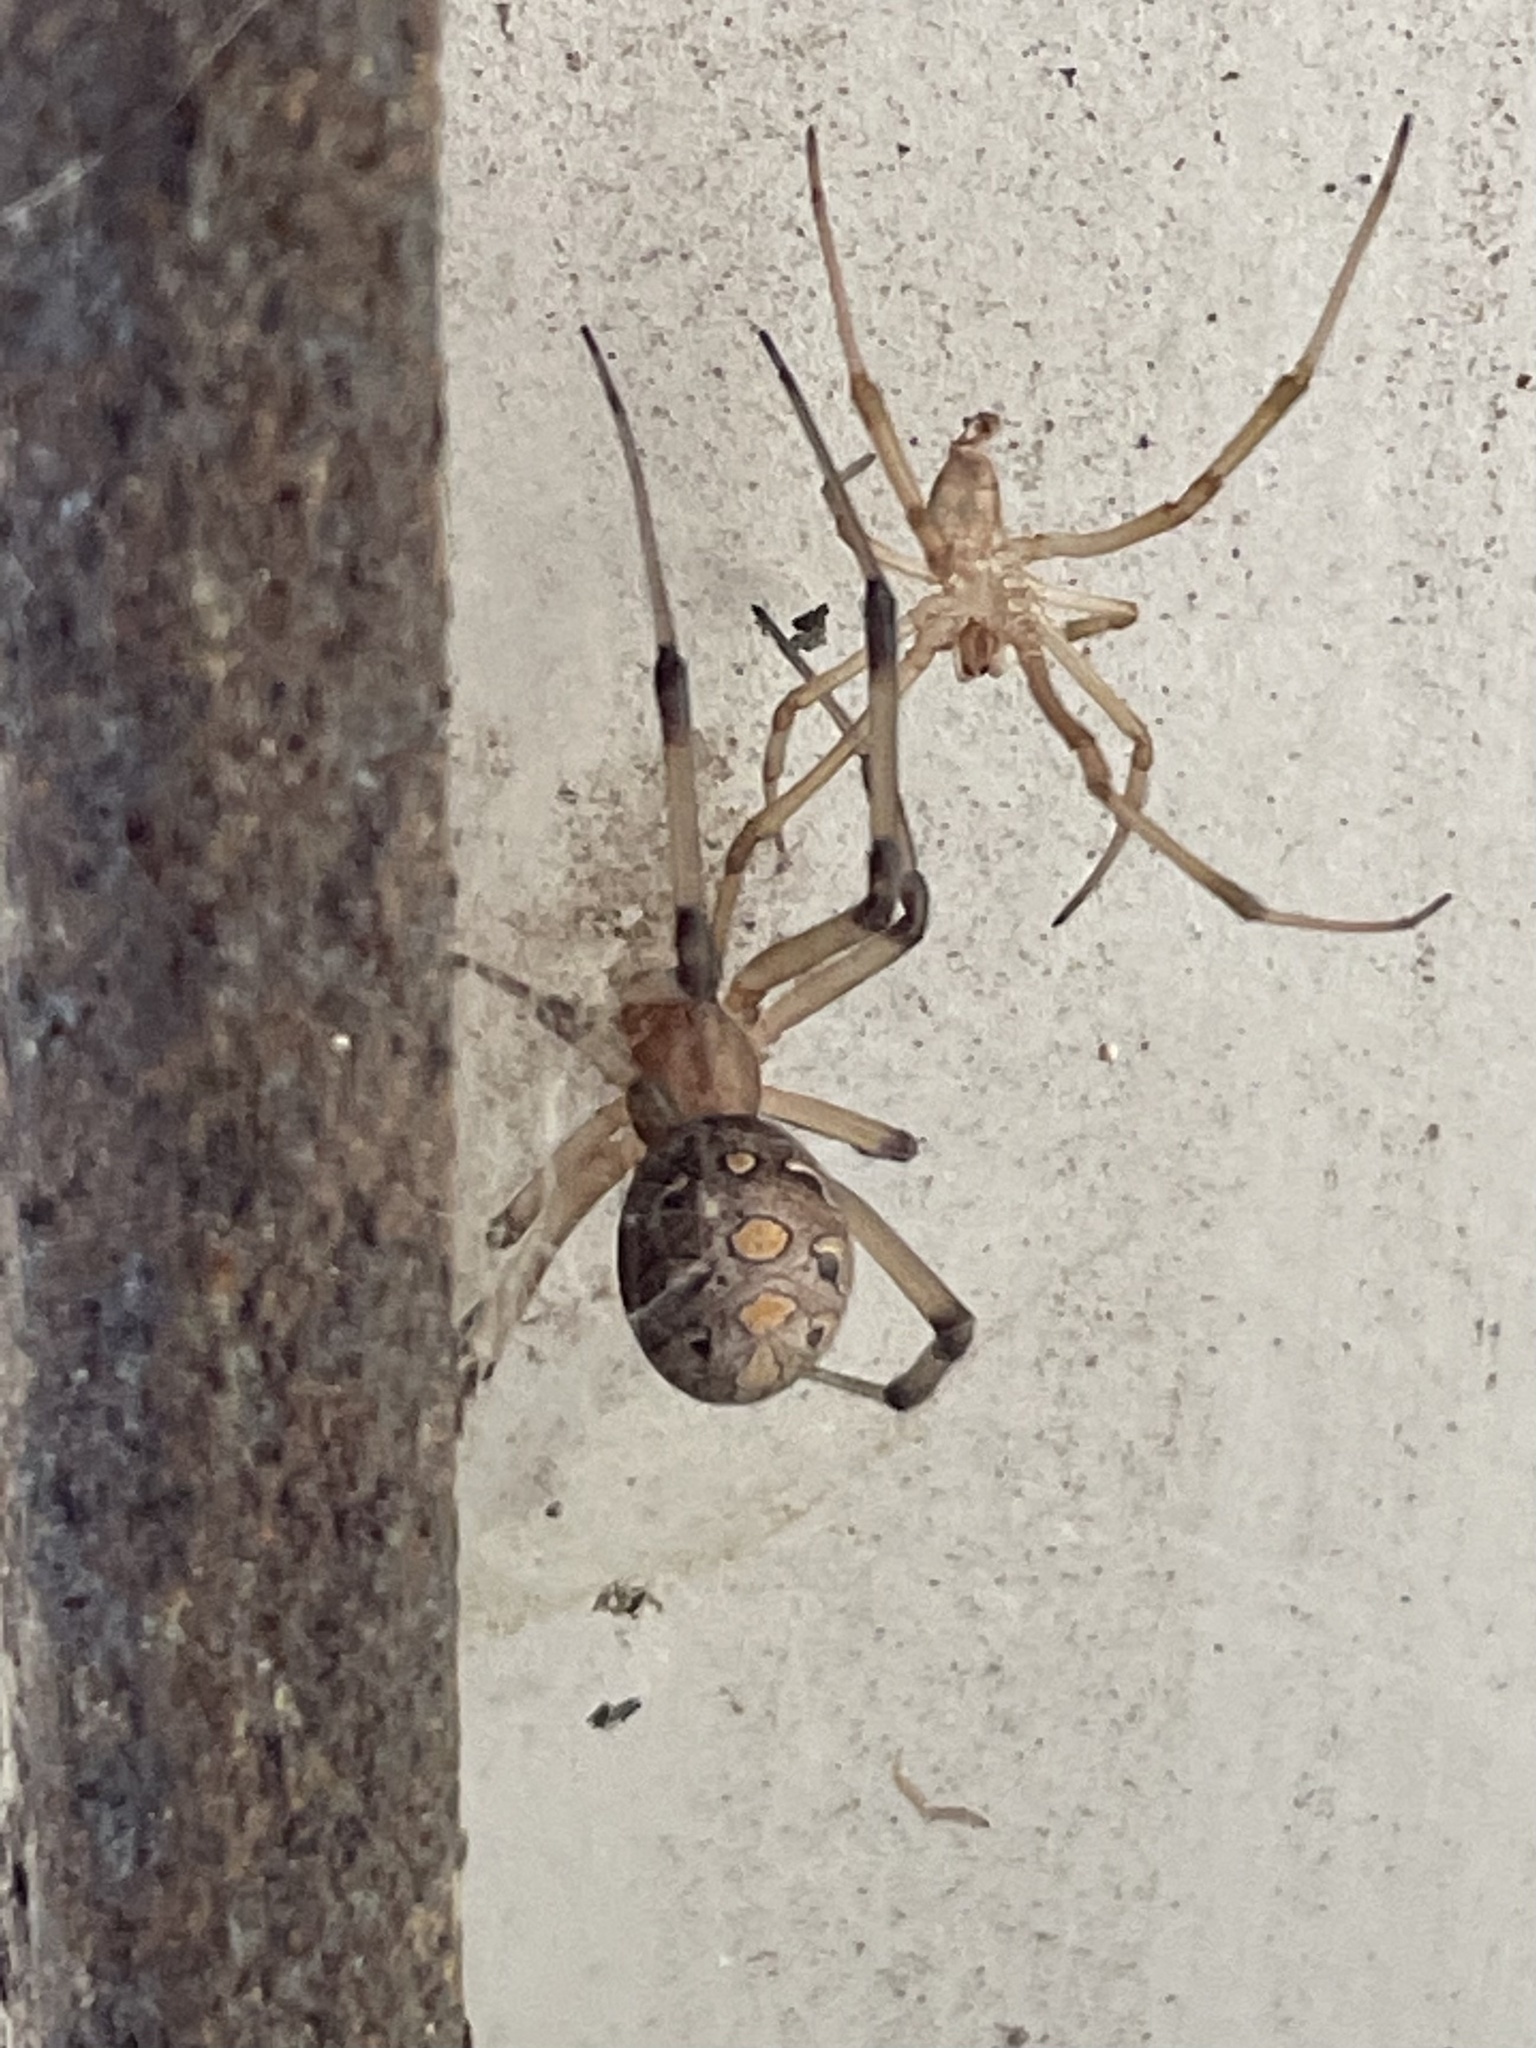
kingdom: Animalia
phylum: Arthropoda
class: Arachnida
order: Araneae
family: Theridiidae
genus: Latrodectus
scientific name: Latrodectus geometricus
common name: Brown widow spider
